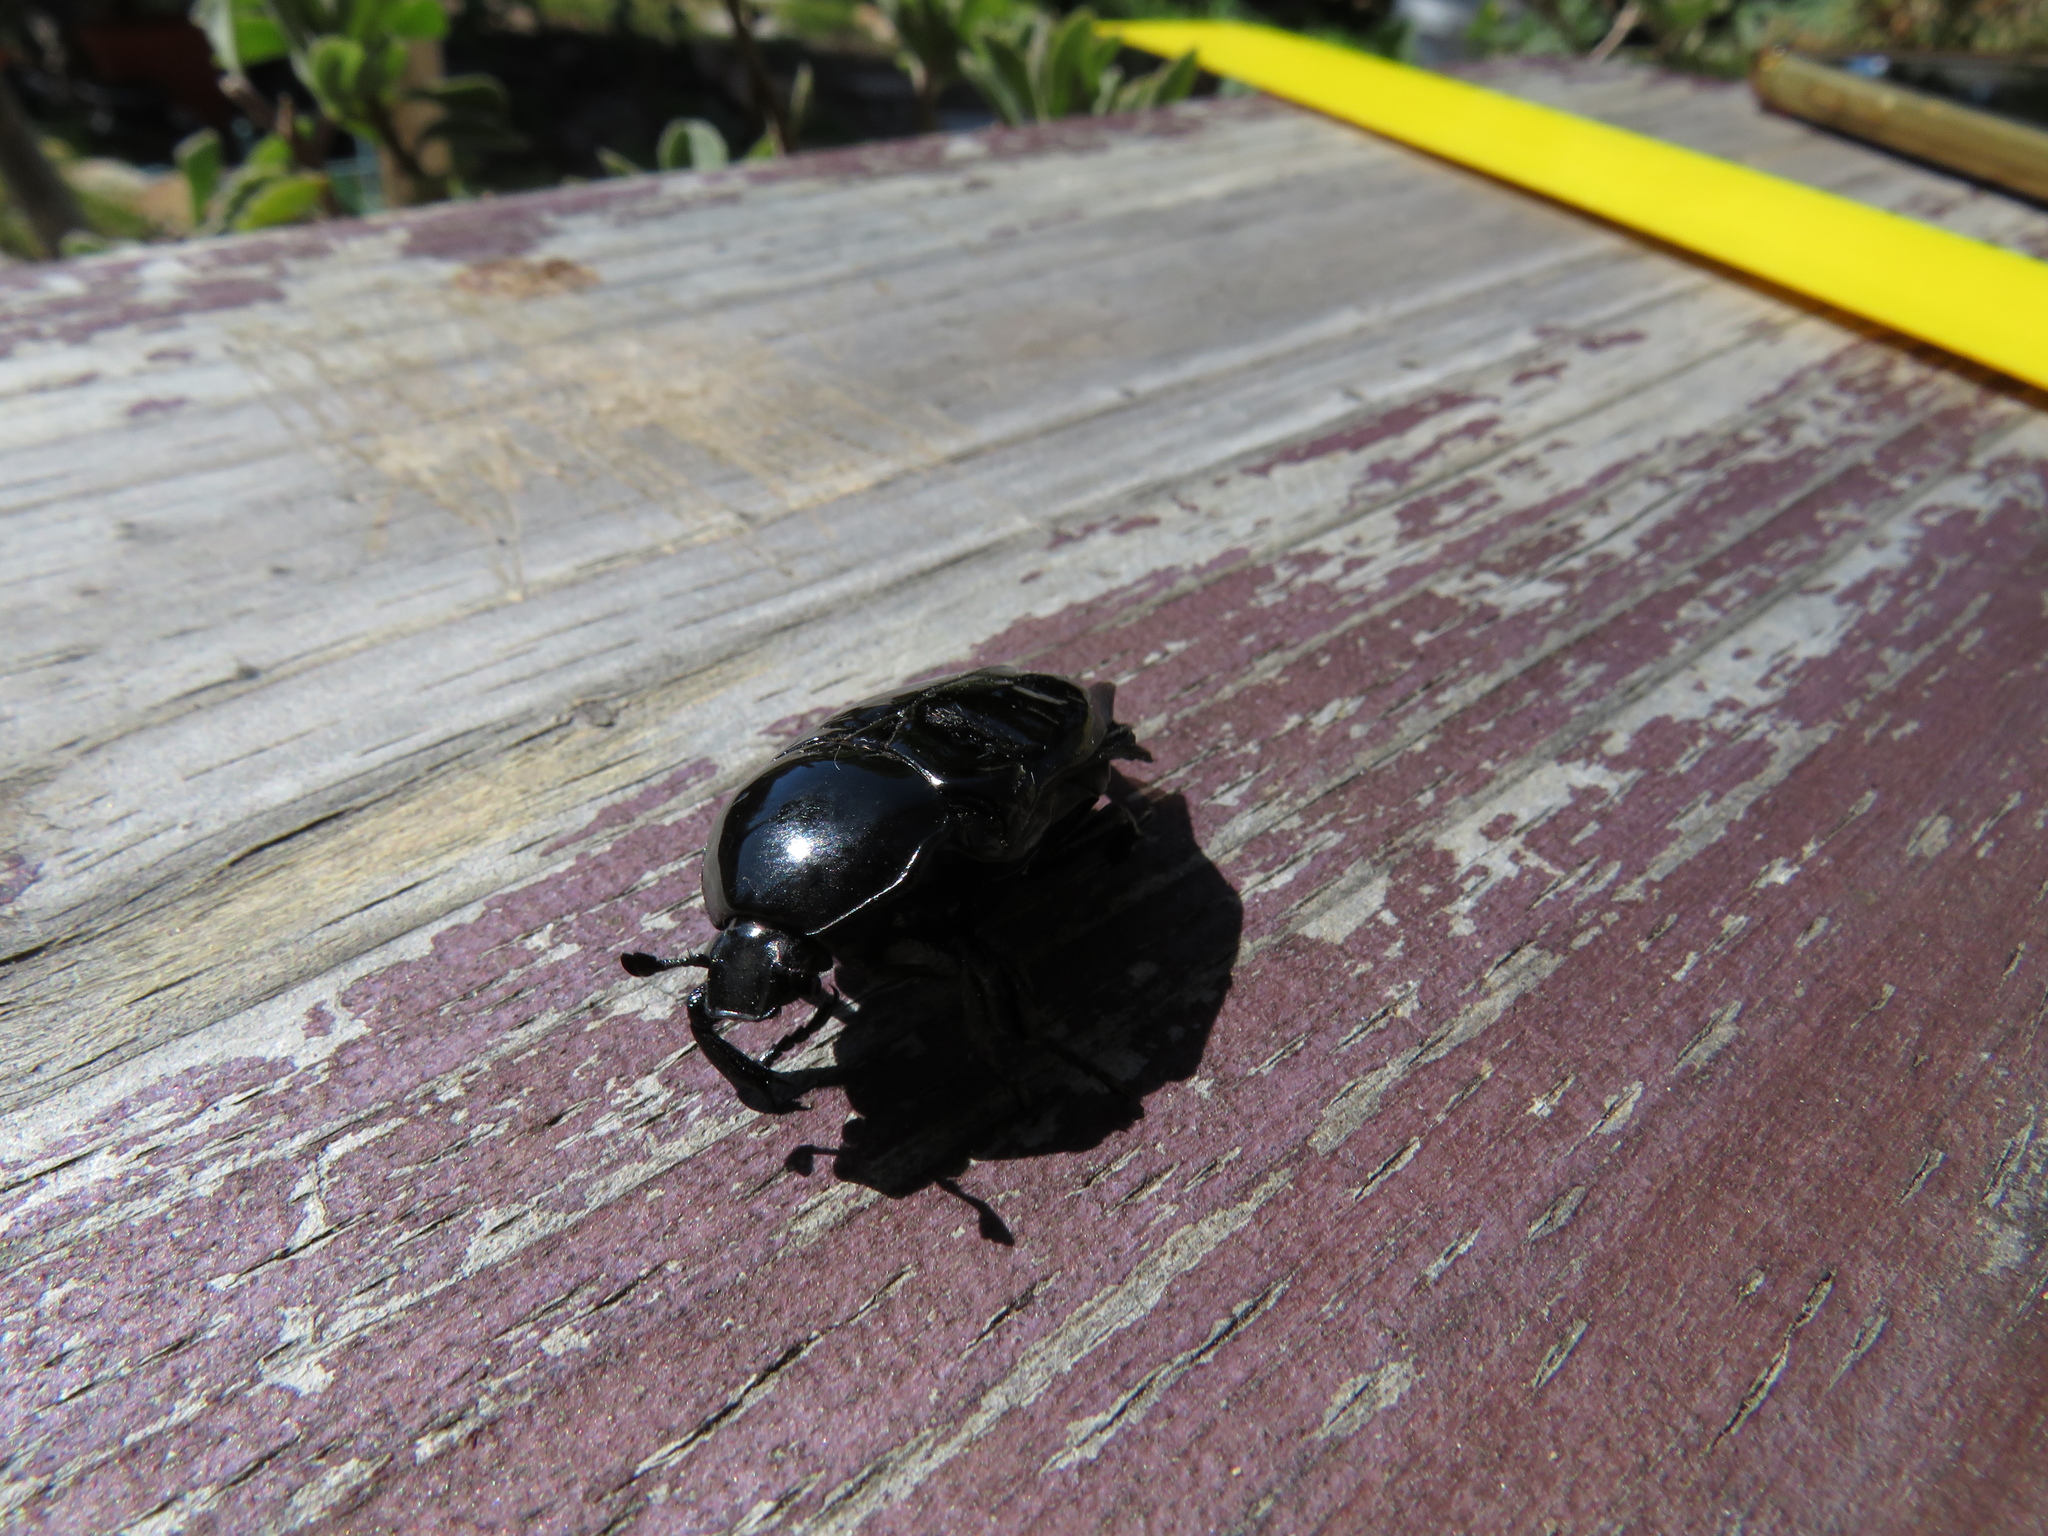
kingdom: Animalia
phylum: Arthropoda
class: Insecta
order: Coleoptera
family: Scarabaeidae
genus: Diplognatha
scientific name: Diplognatha gagates
